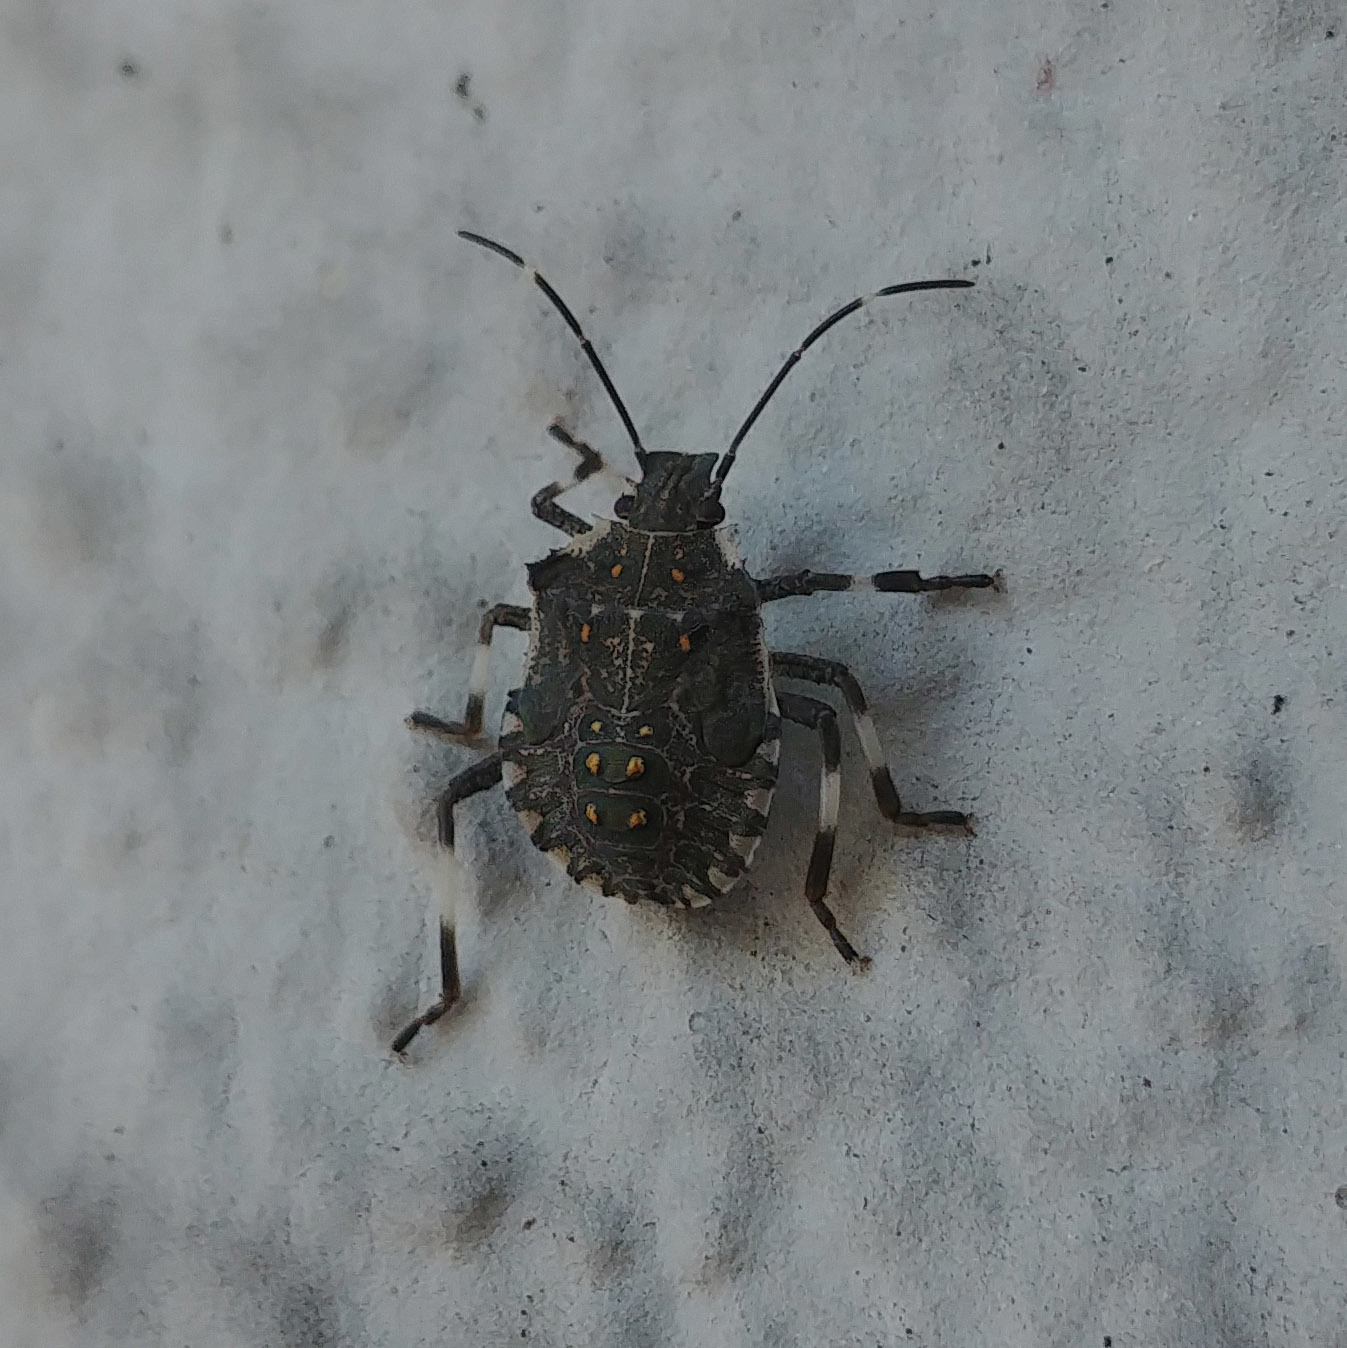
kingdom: Animalia
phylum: Arthropoda
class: Insecta
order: Hemiptera
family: Pentatomidae
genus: Halyomorpha
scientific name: Halyomorpha halys
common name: Brown marmorated stink bug
